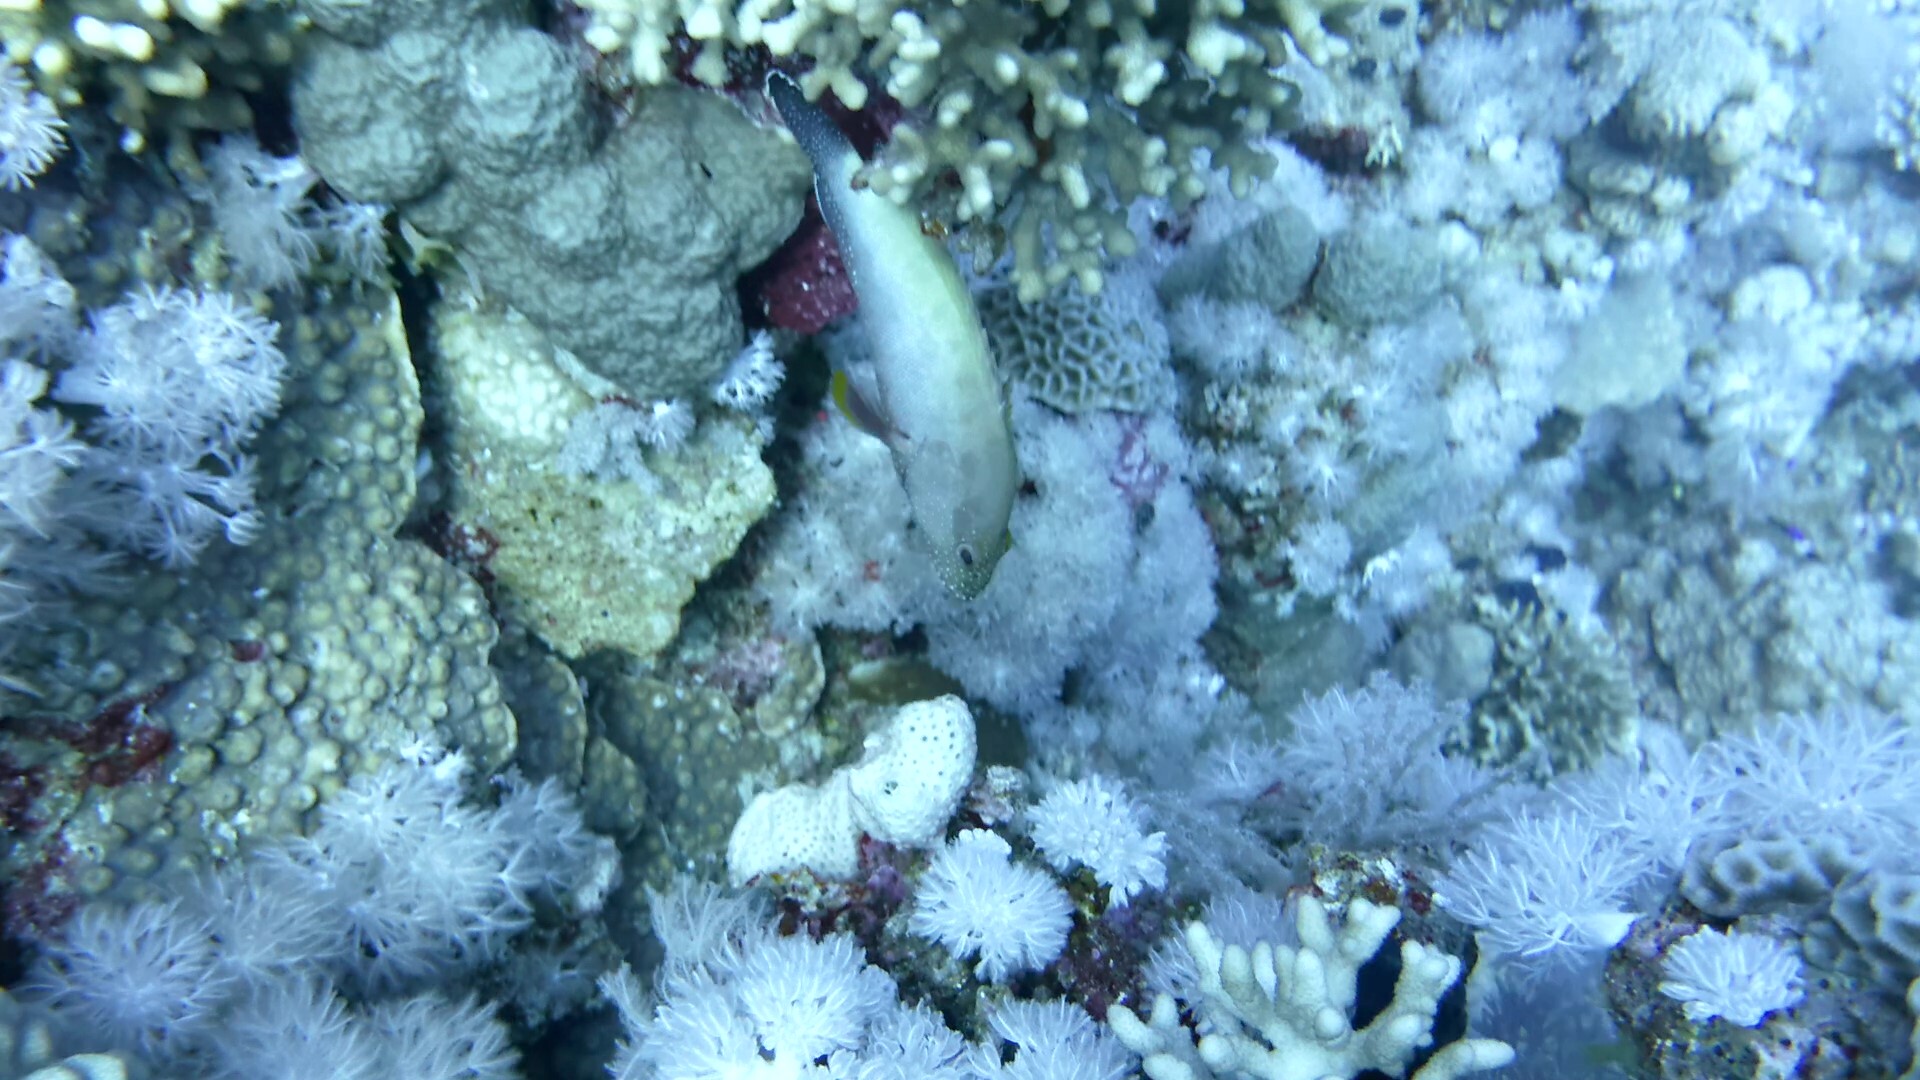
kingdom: Animalia
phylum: Chordata
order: Perciformes
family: Serranidae
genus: Cephalopholis
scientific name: Cephalopholis hemistiktos
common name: Halfspotted hind
